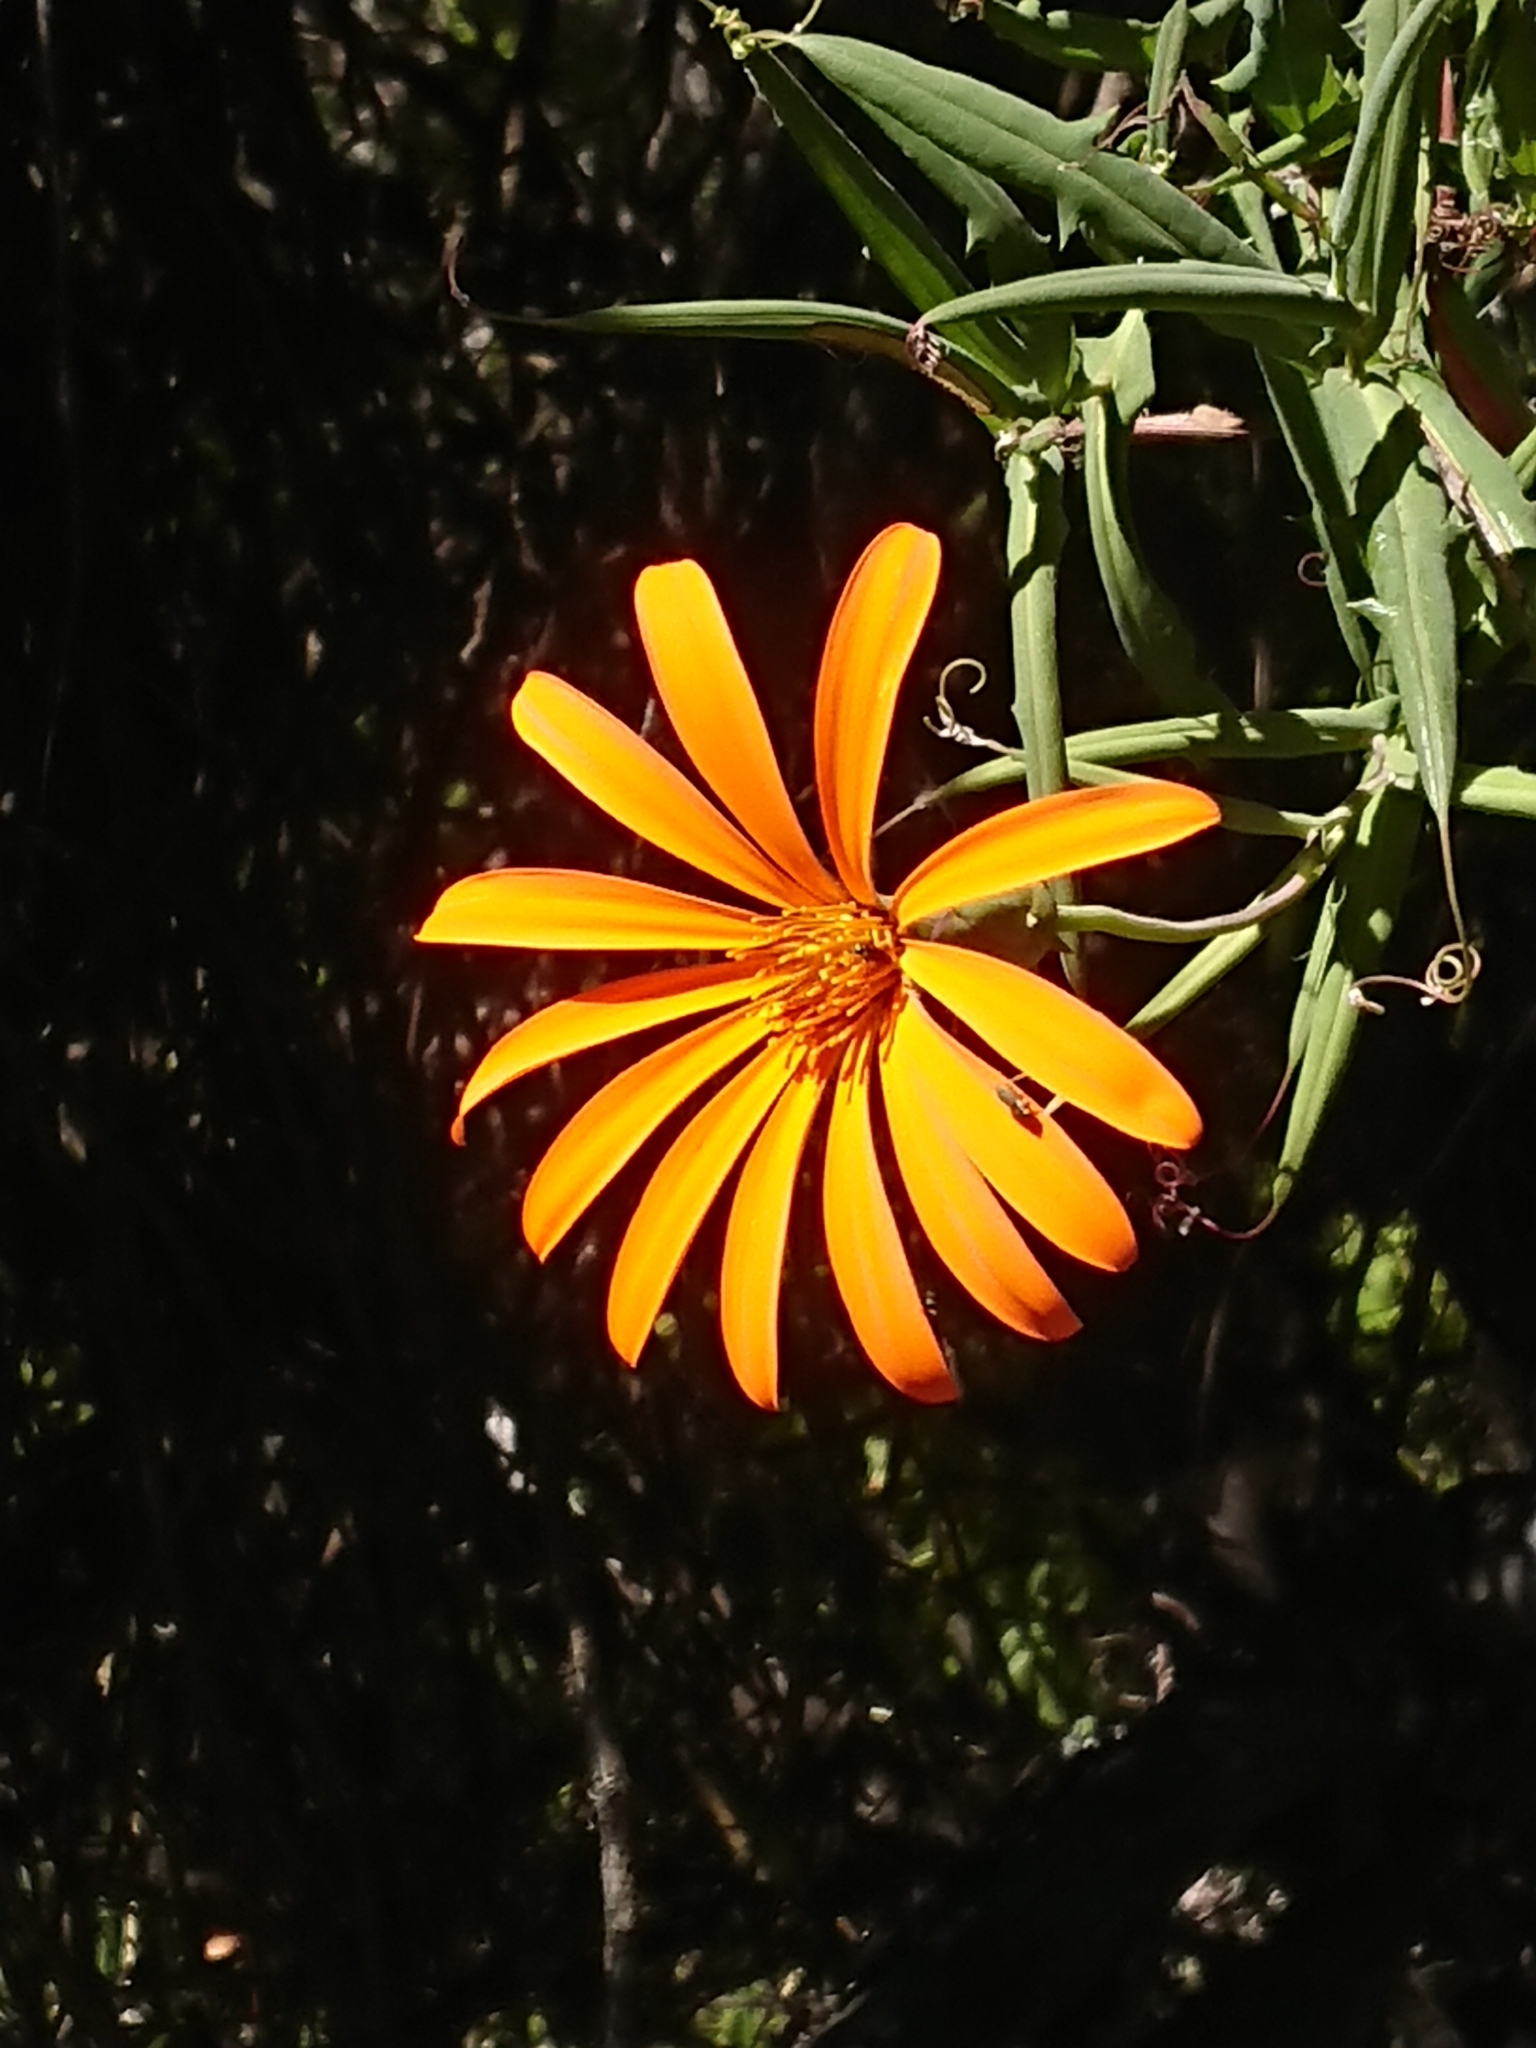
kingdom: Plantae
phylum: Tracheophyta
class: Magnoliopsida
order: Asterales
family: Asteraceae
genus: Mutisia
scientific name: Mutisia decurrens
